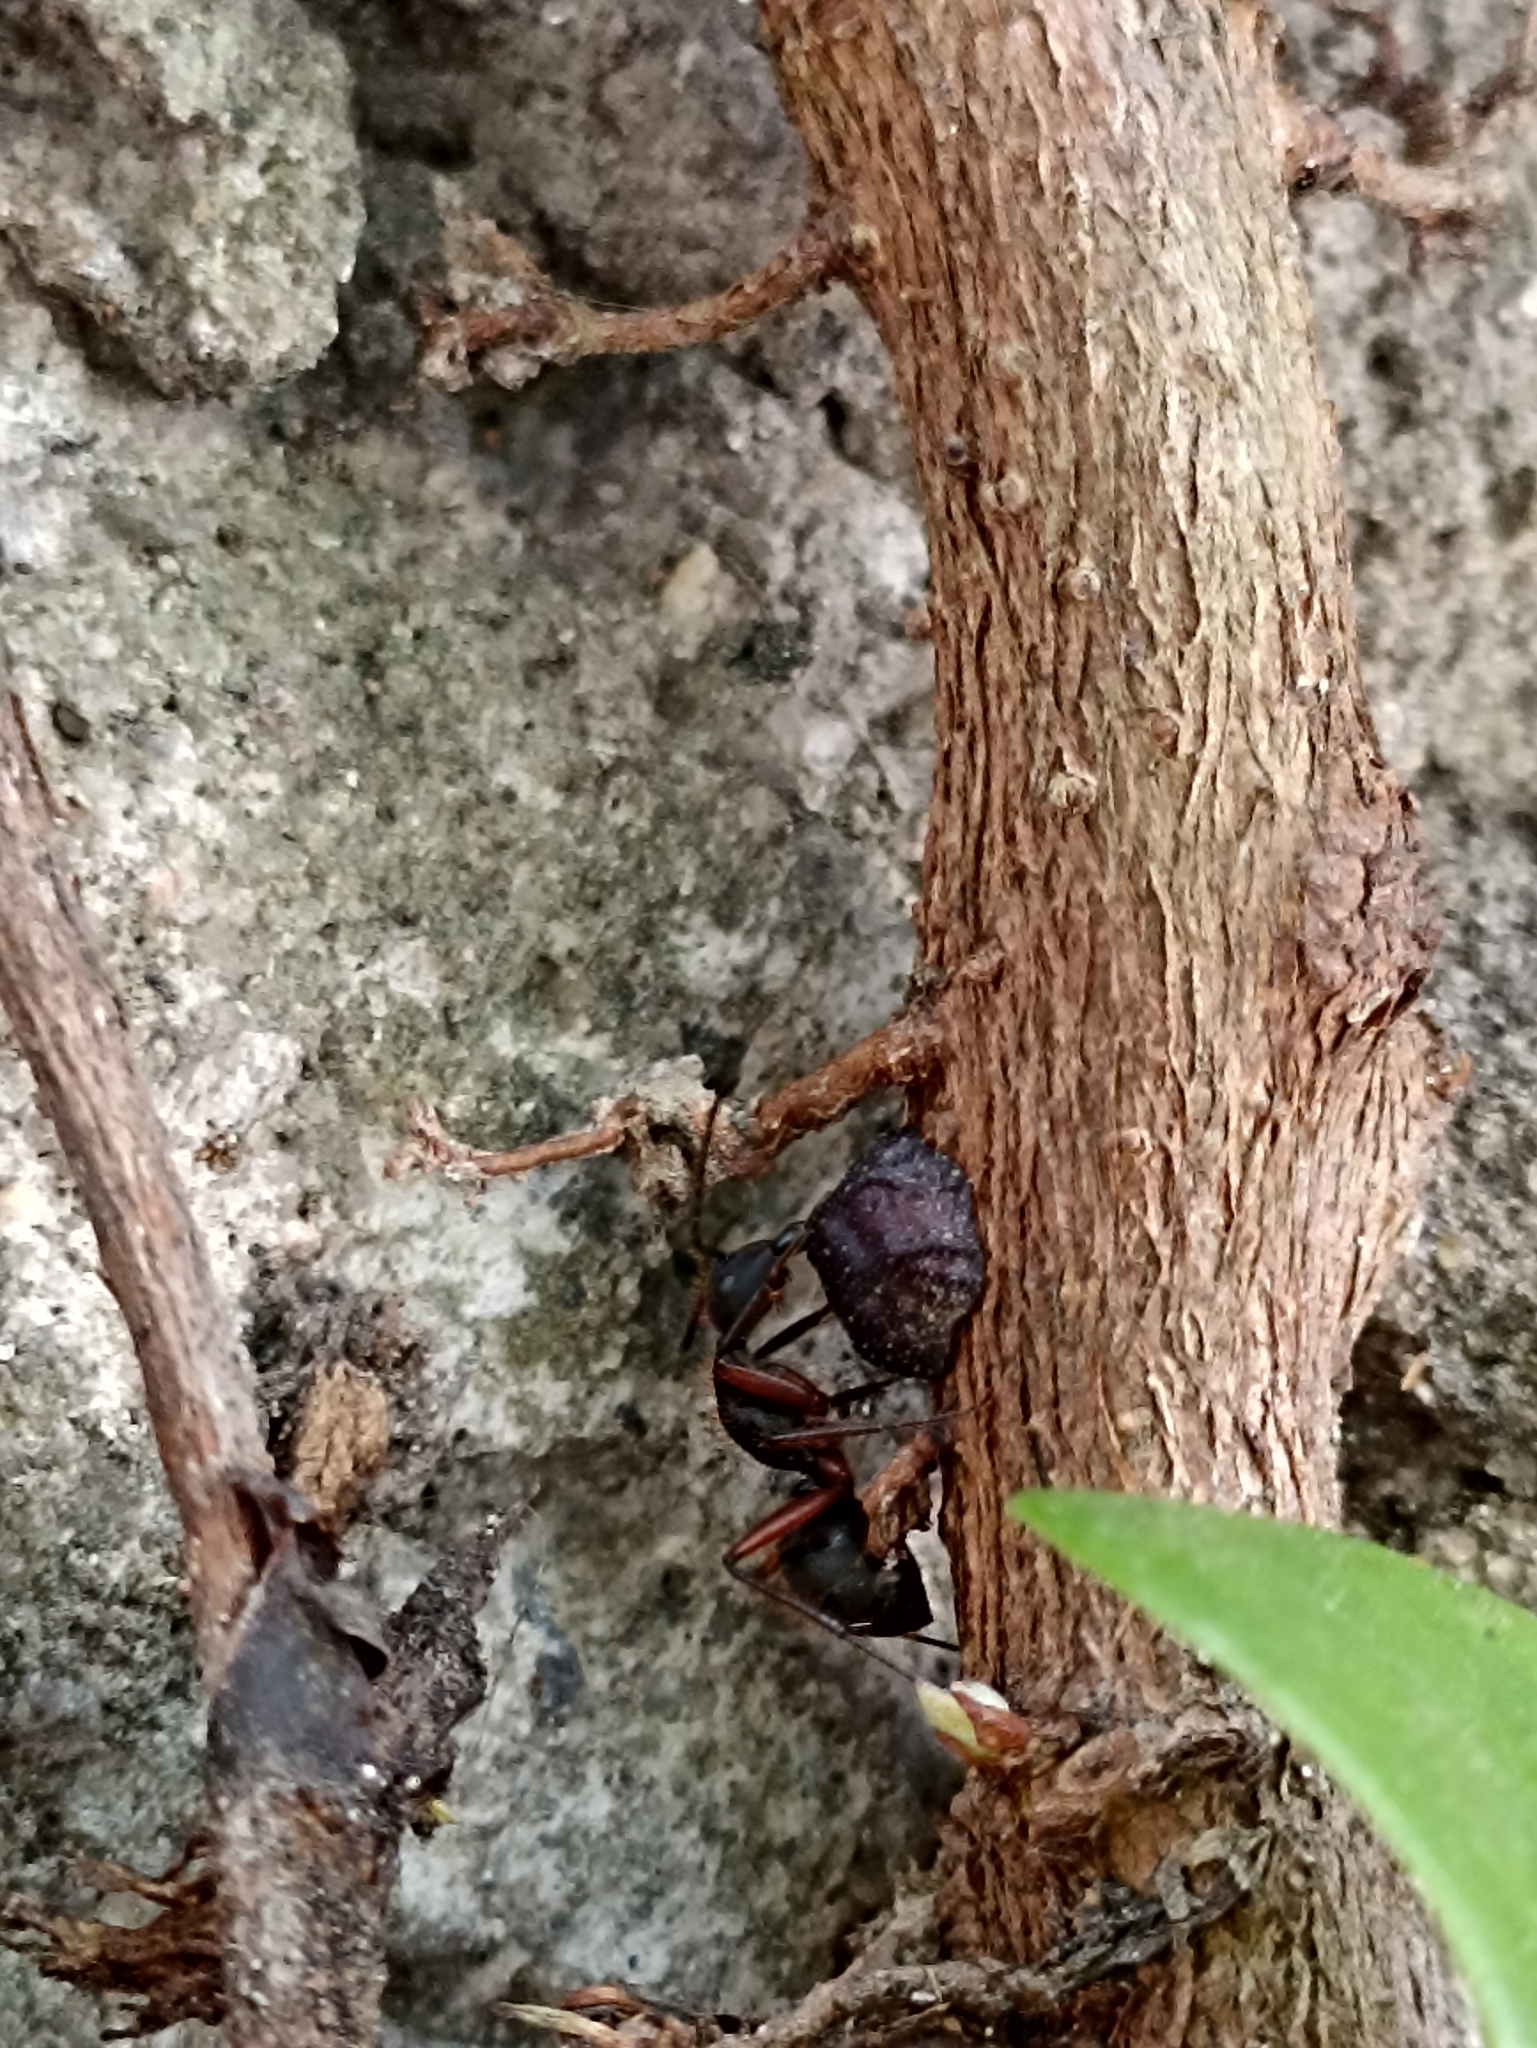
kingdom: Animalia
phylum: Arthropoda
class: Insecta
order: Hymenoptera
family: Formicidae
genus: Camponotus
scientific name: Camponotus rufipes
